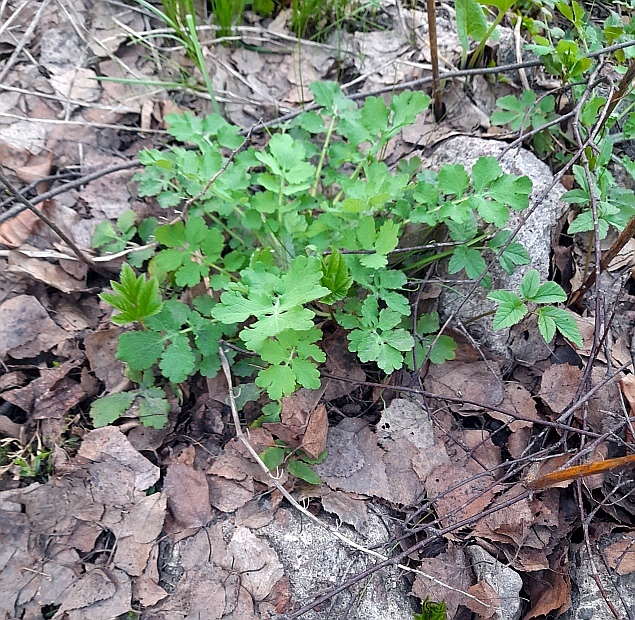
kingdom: Plantae
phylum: Tracheophyta
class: Magnoliopsida
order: Ranunculales
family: Papaveraceae
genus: Chelidonium
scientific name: Chelidonium majus
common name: Greater celandine
